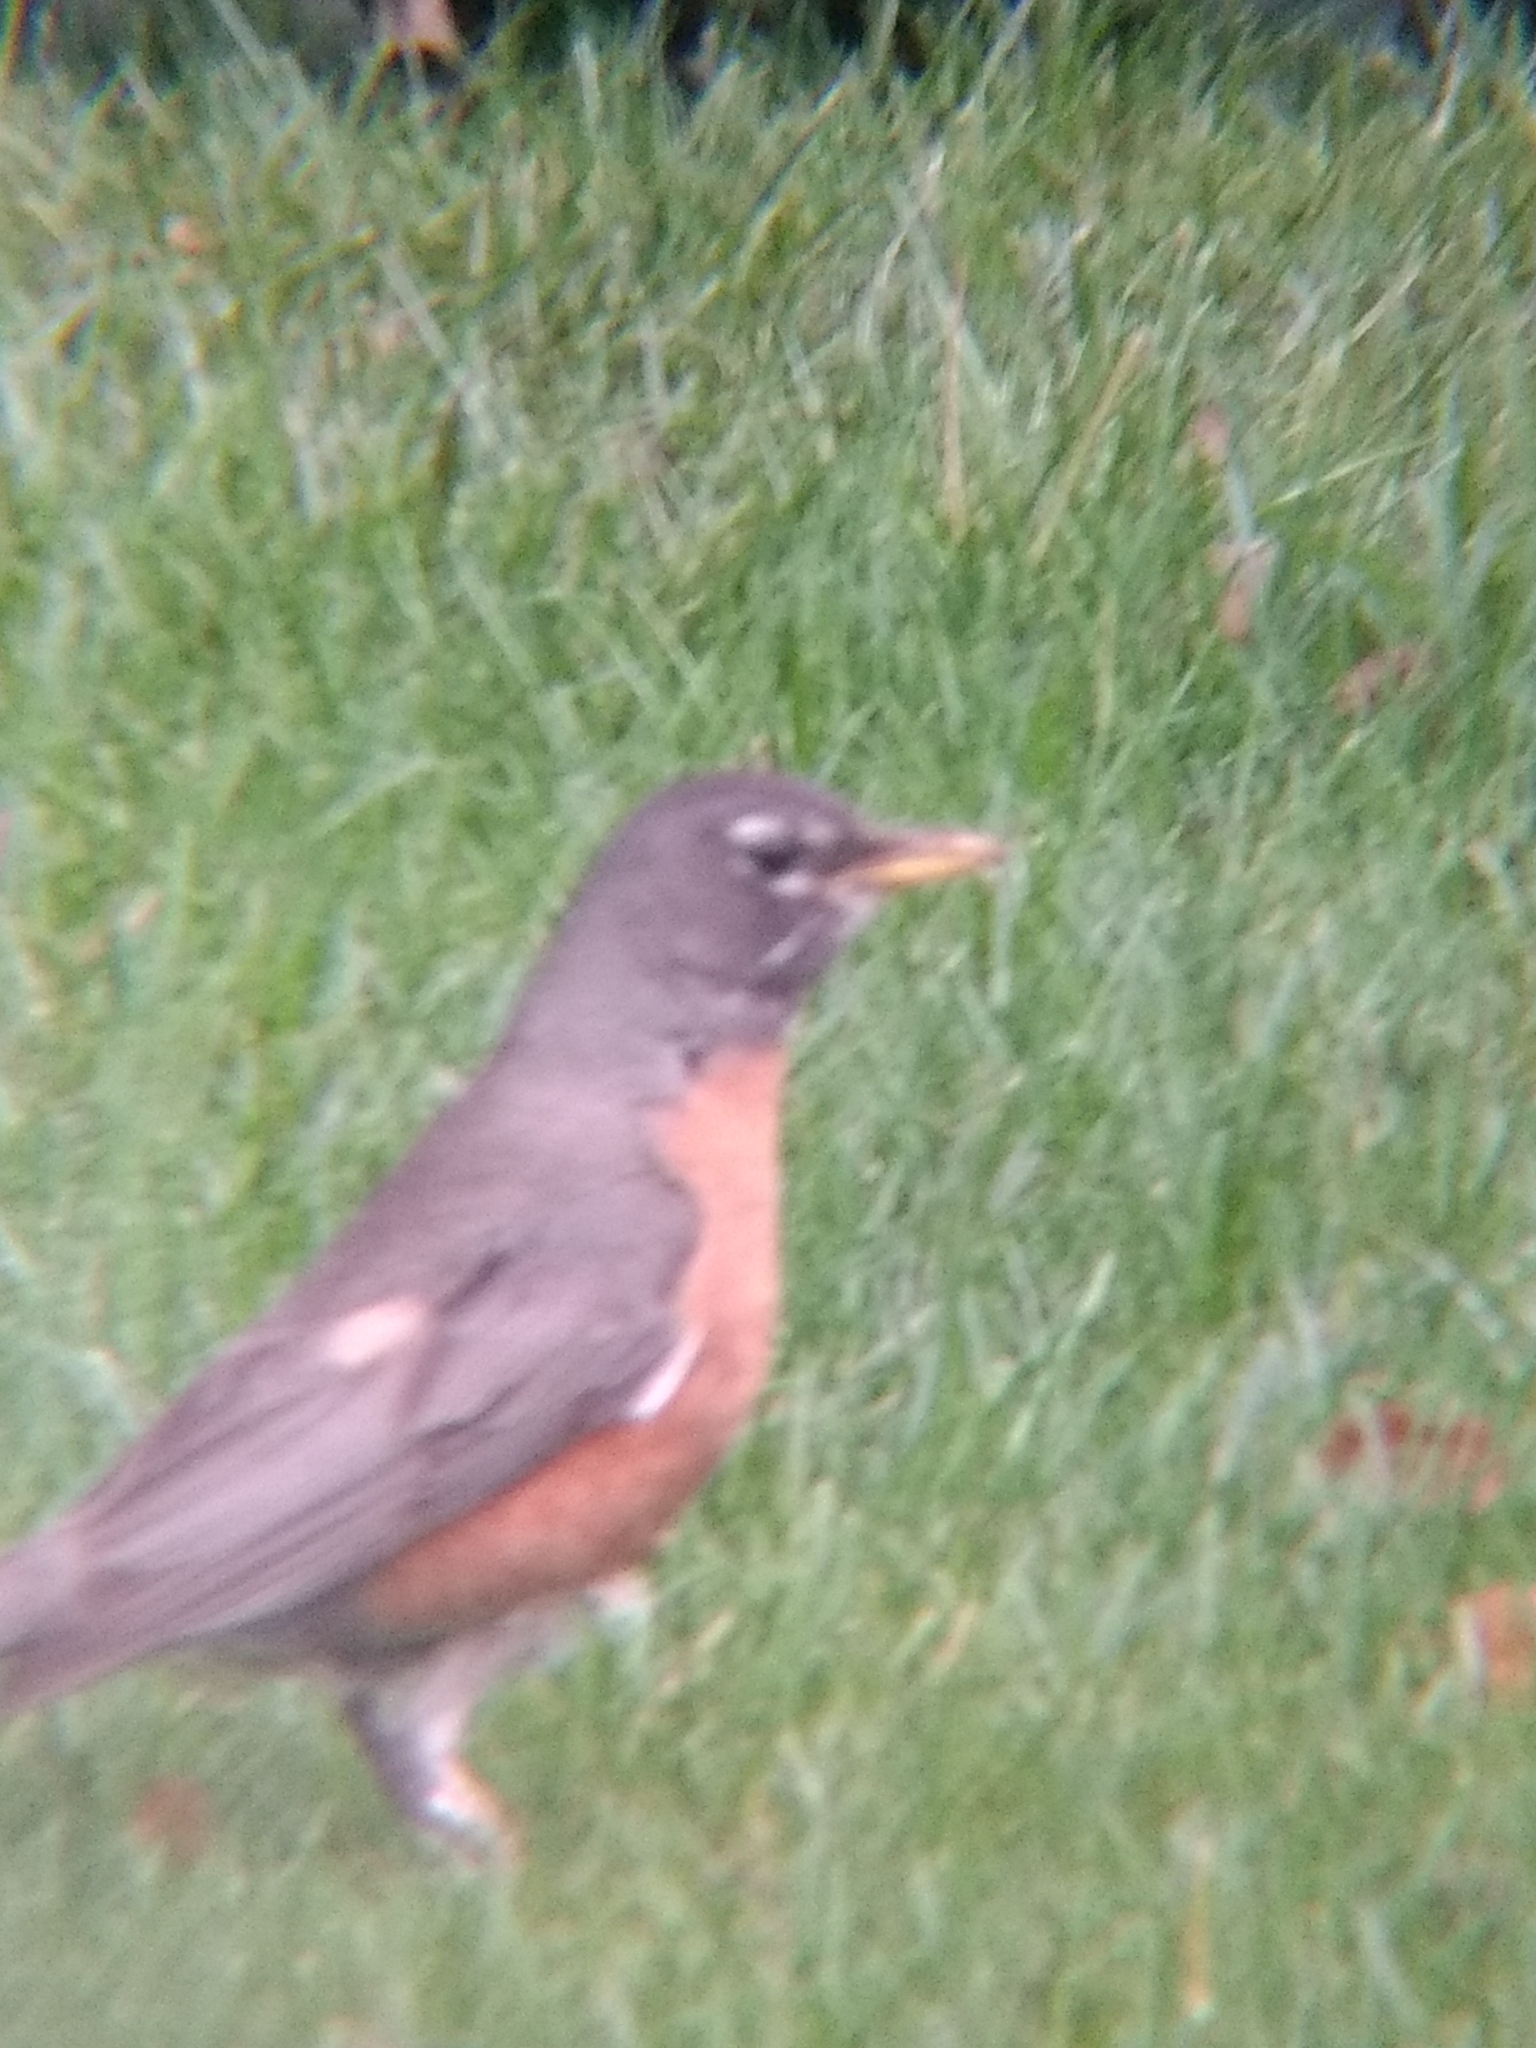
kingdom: Animalia
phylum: Chordata
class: Aves
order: Passeriformes
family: Turdidae
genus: Turdus
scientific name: Turdus migratorius
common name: American robin
